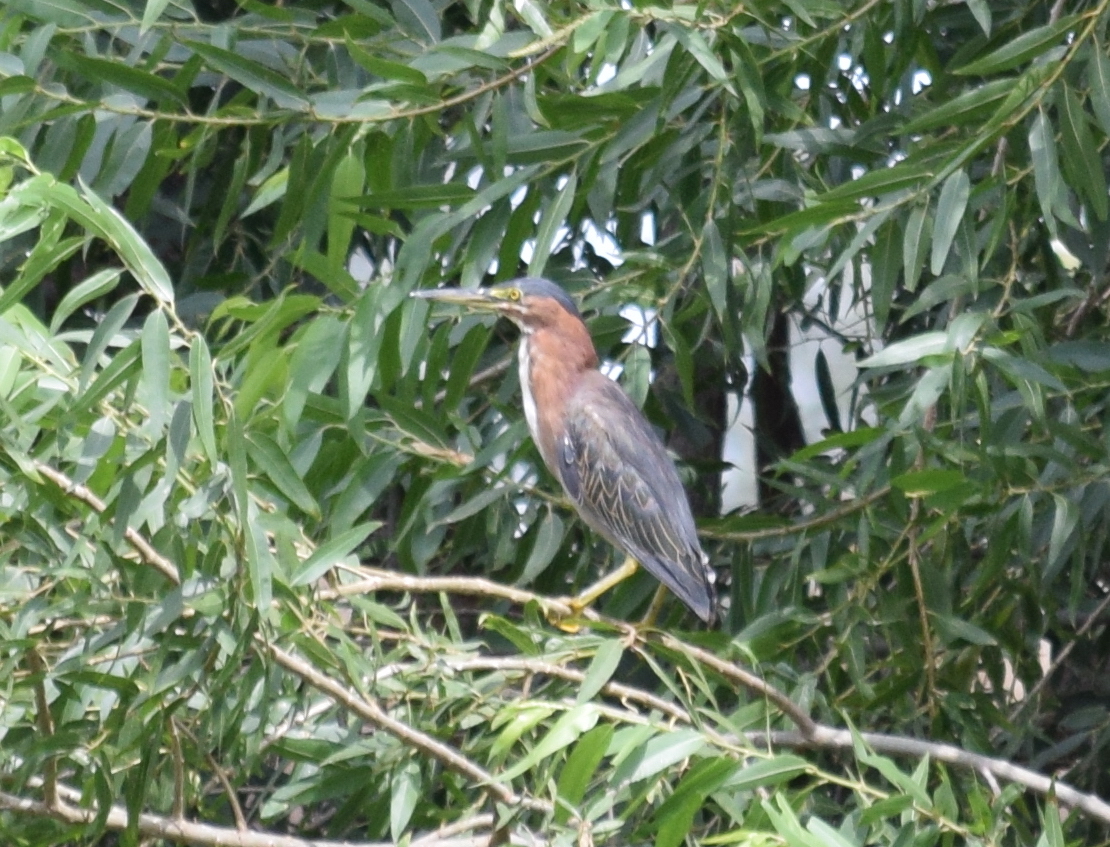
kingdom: Animalia
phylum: Chordata
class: Aves
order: Pelecaniformes
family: Ardeidae
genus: Butorides
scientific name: Butorides virescens
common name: Green heron
